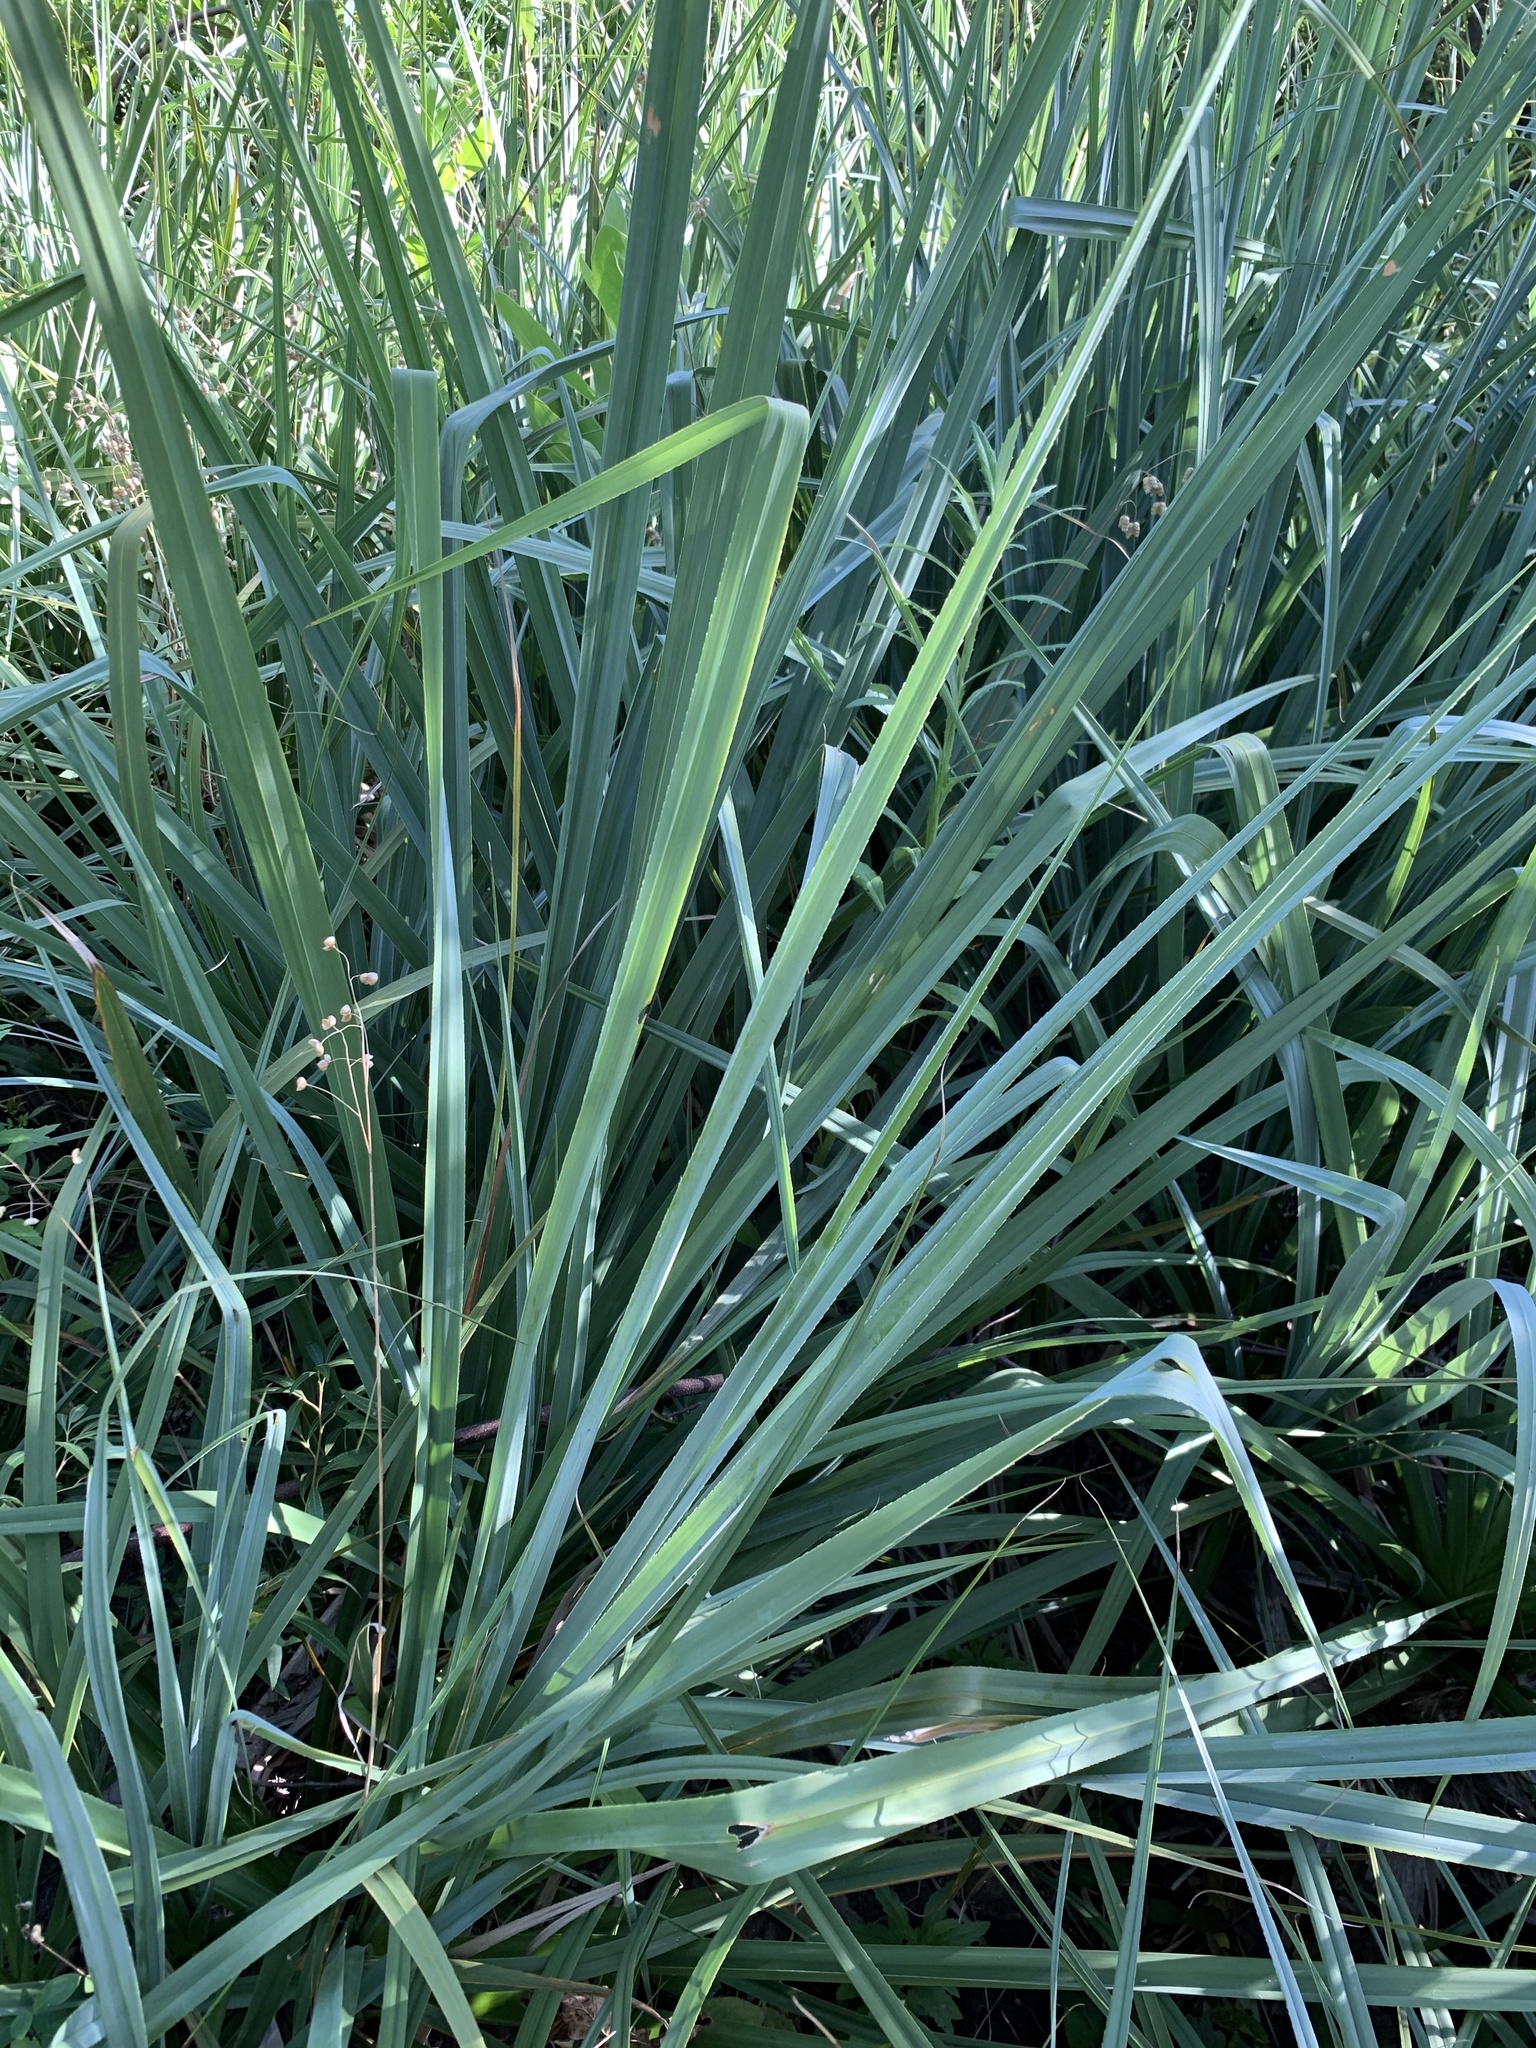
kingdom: Plantae
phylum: Tracheophyta
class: Liliopsida
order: Poales
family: Thurniaceae
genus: Prionium
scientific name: Prionium serratum
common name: Palmiet
